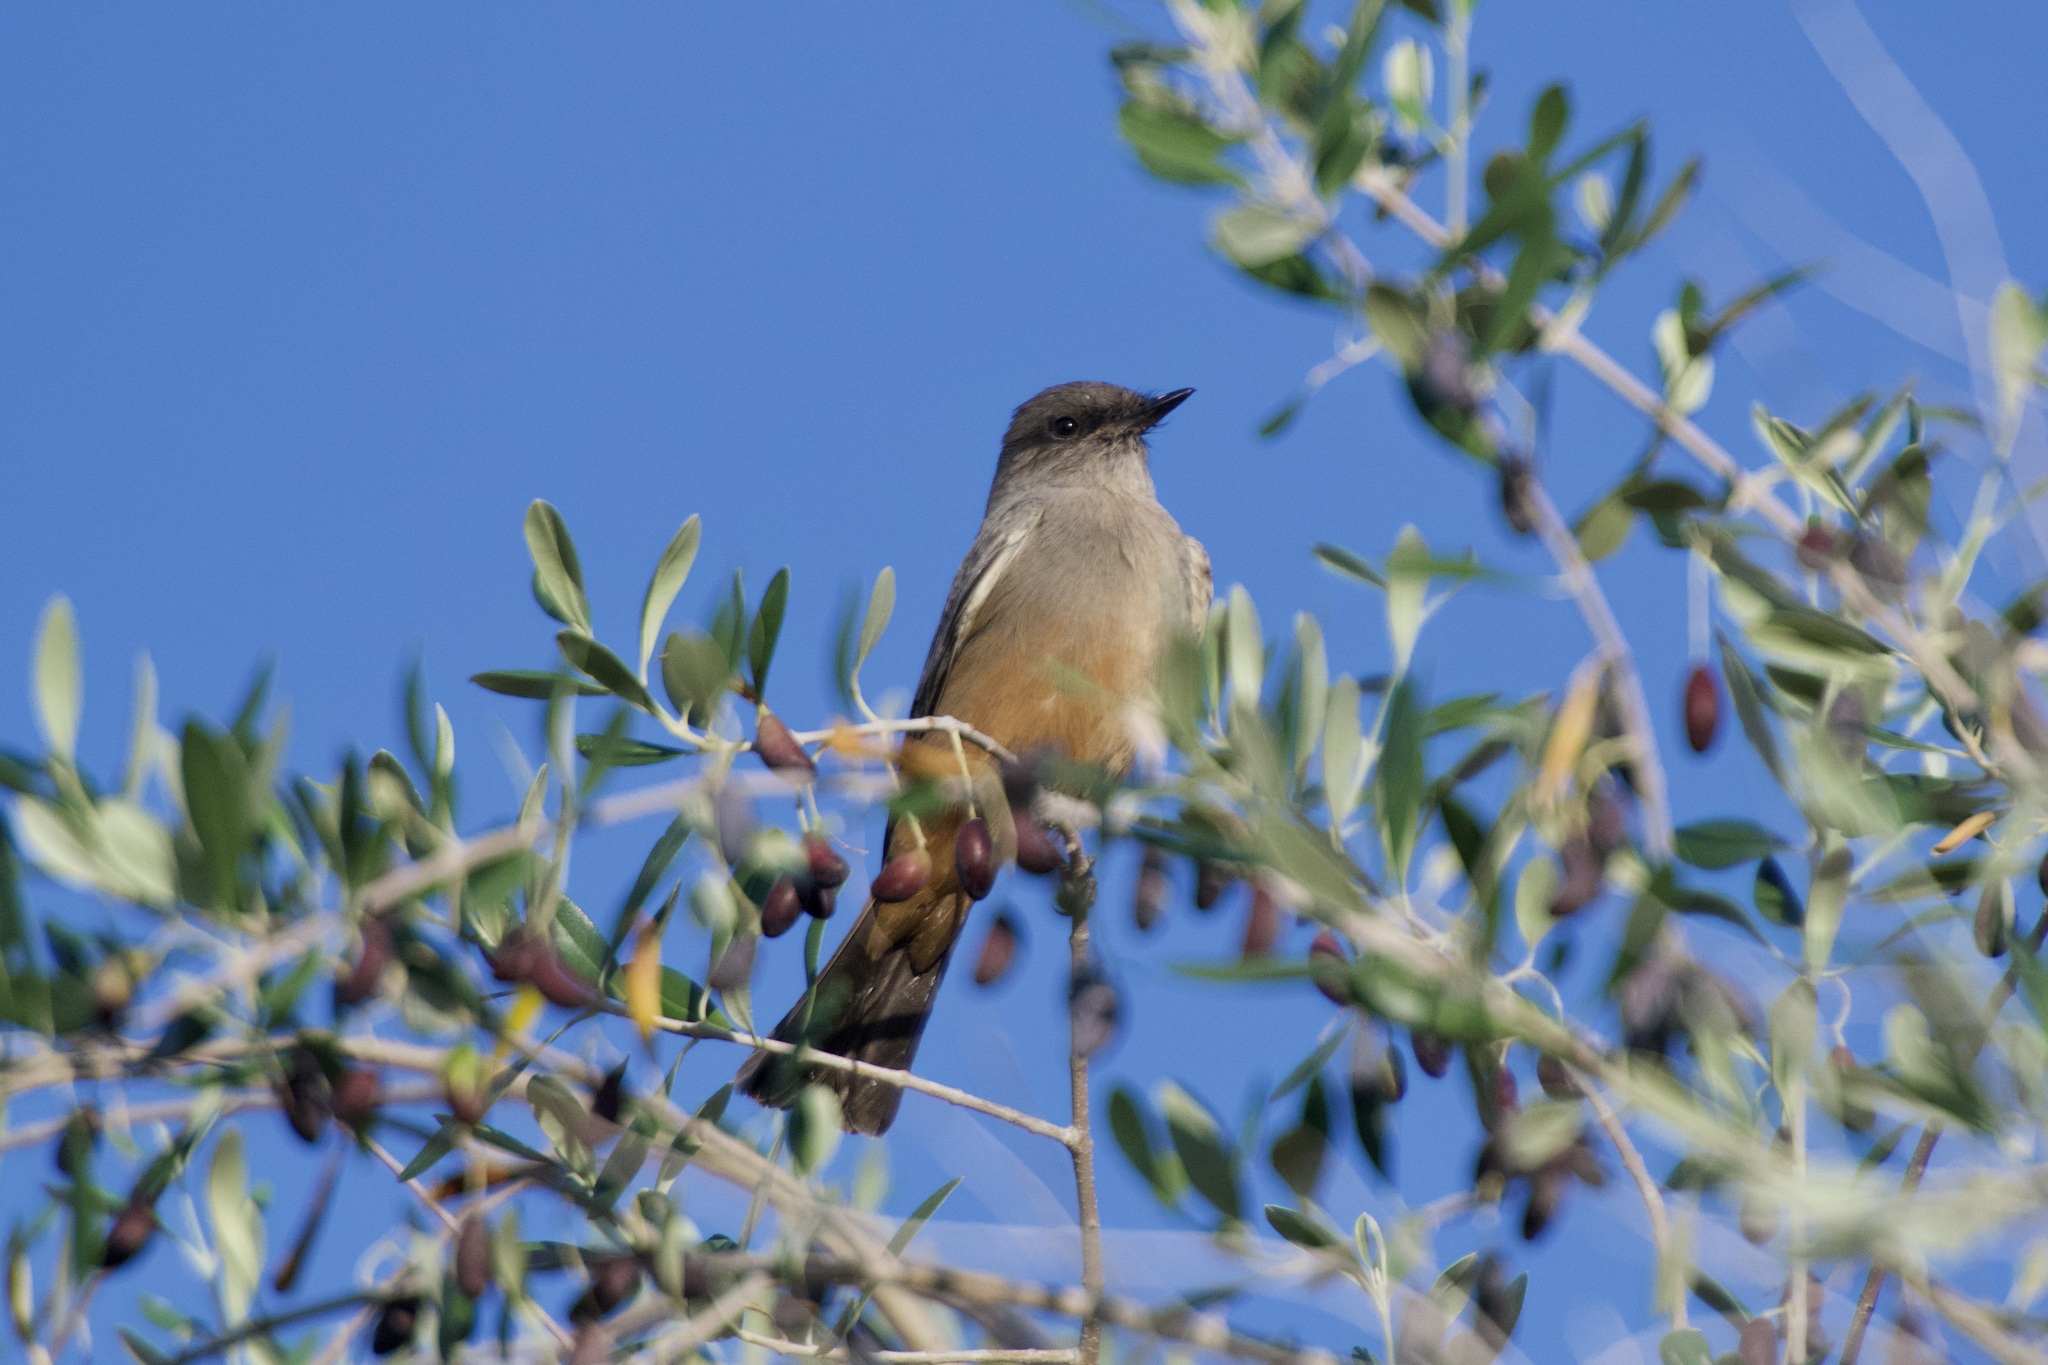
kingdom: Animalia
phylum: Chordata
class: Aves
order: Passeriformes
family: Tyrannidae
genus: Sayornis
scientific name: Sayornis saya
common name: Say's phoebe
